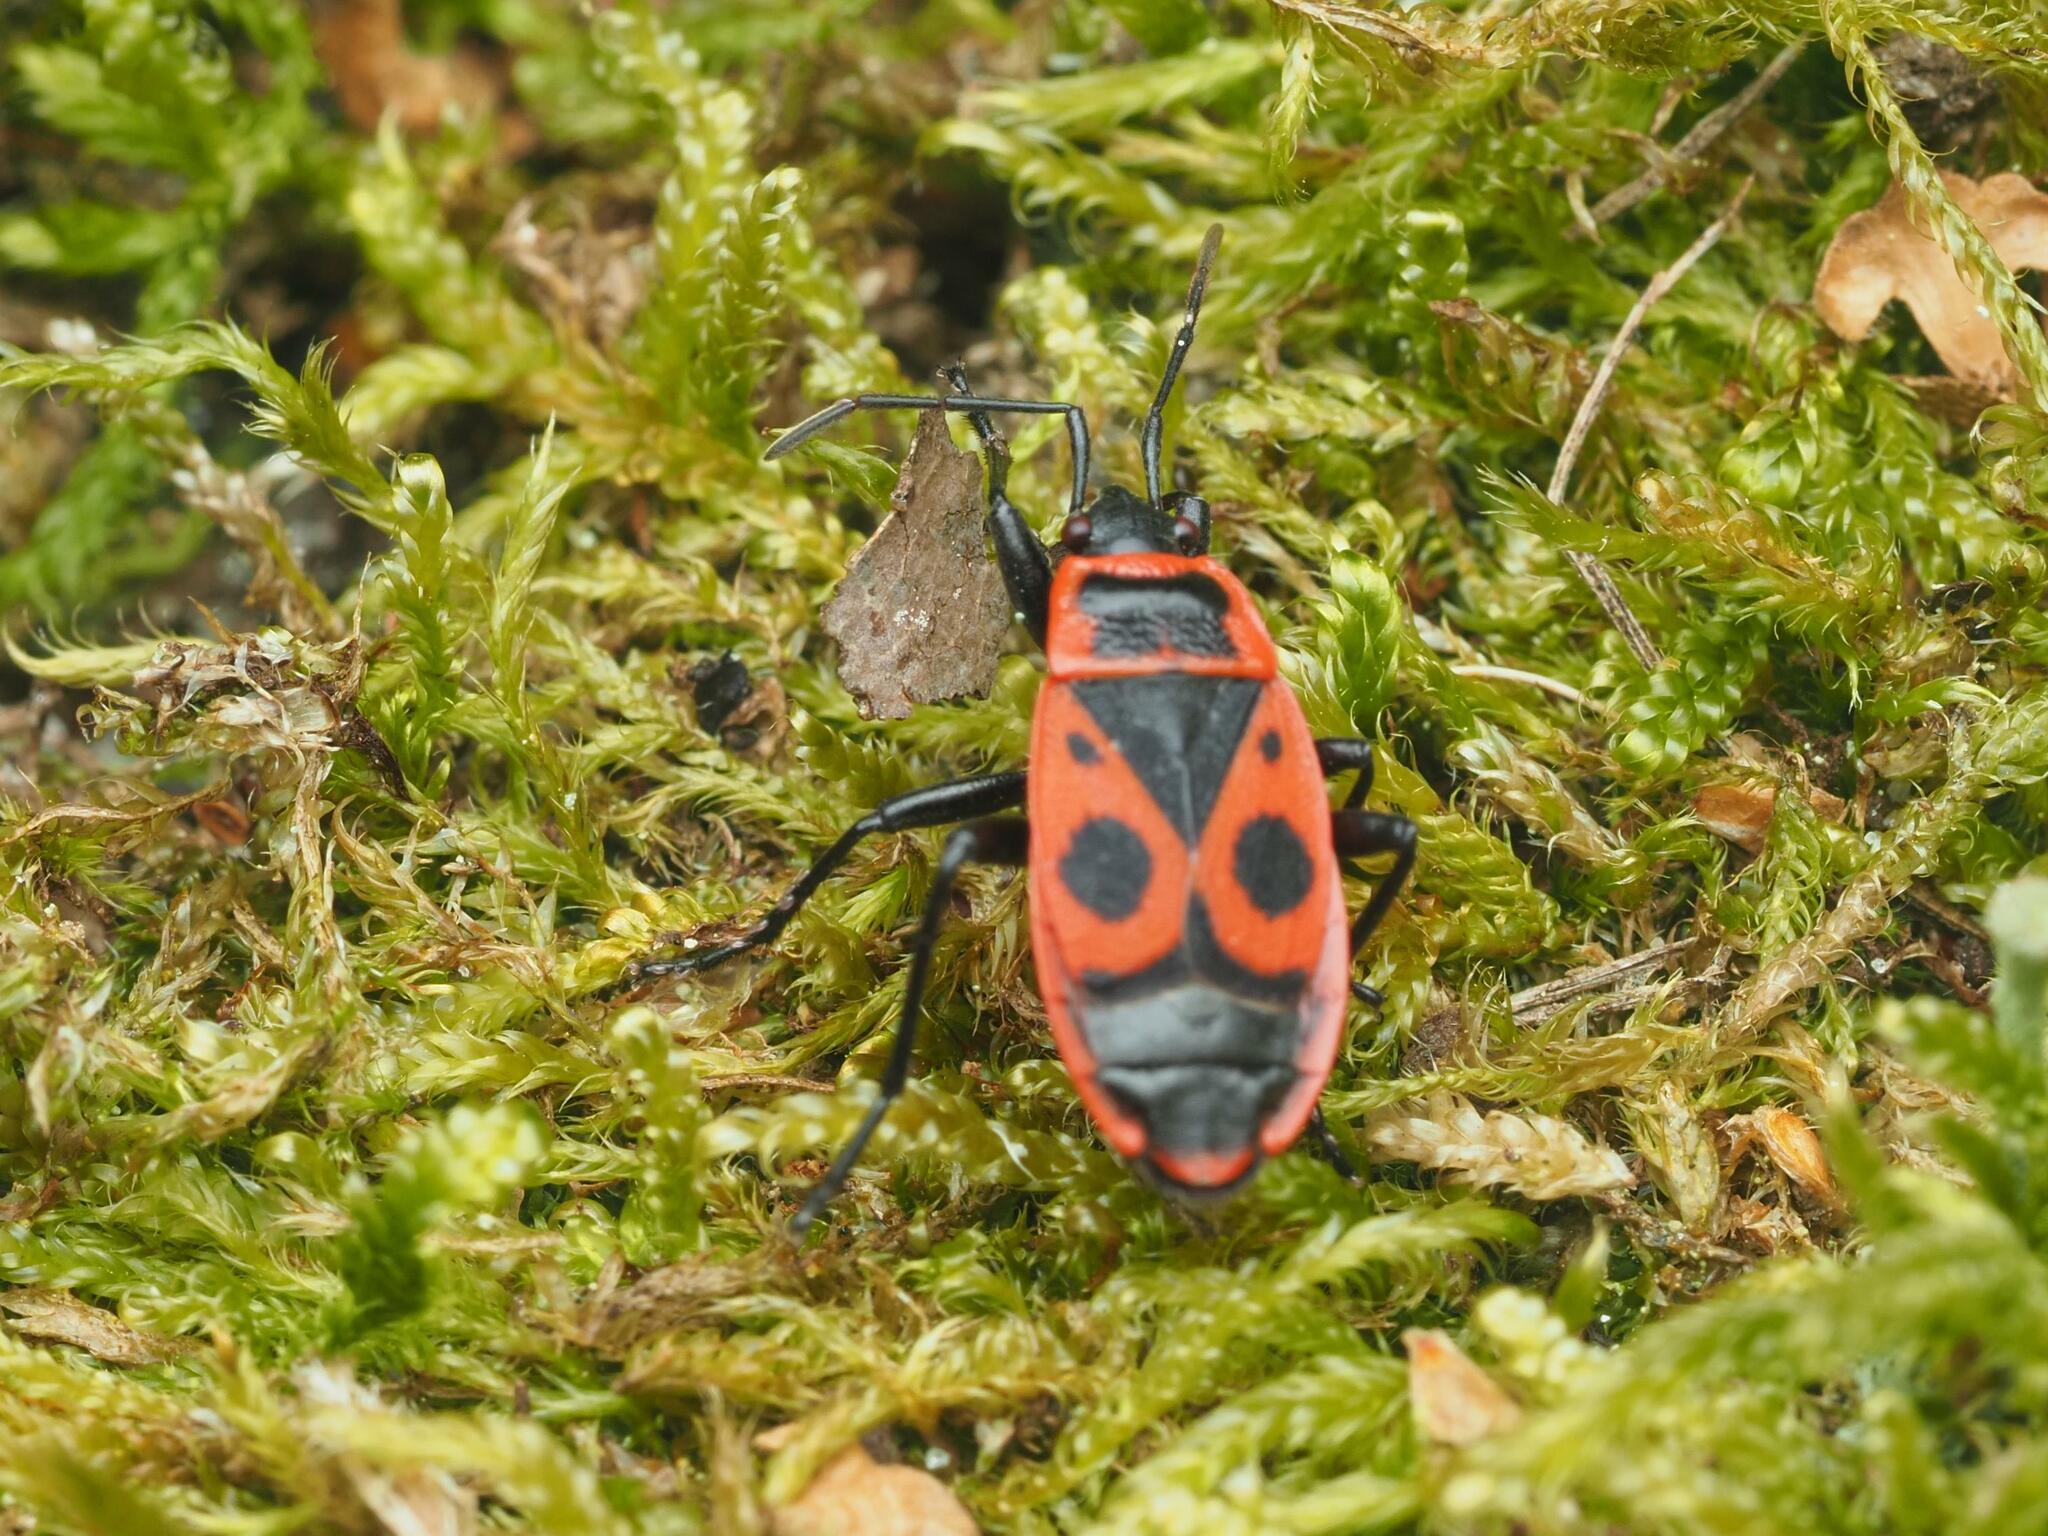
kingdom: Animalia
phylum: Arthropoda
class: Insecta
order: Hemiptera
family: Pyrrhocoridae
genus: Pyrrhocoris
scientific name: Pyrrhocoris apterus
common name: Firebug
